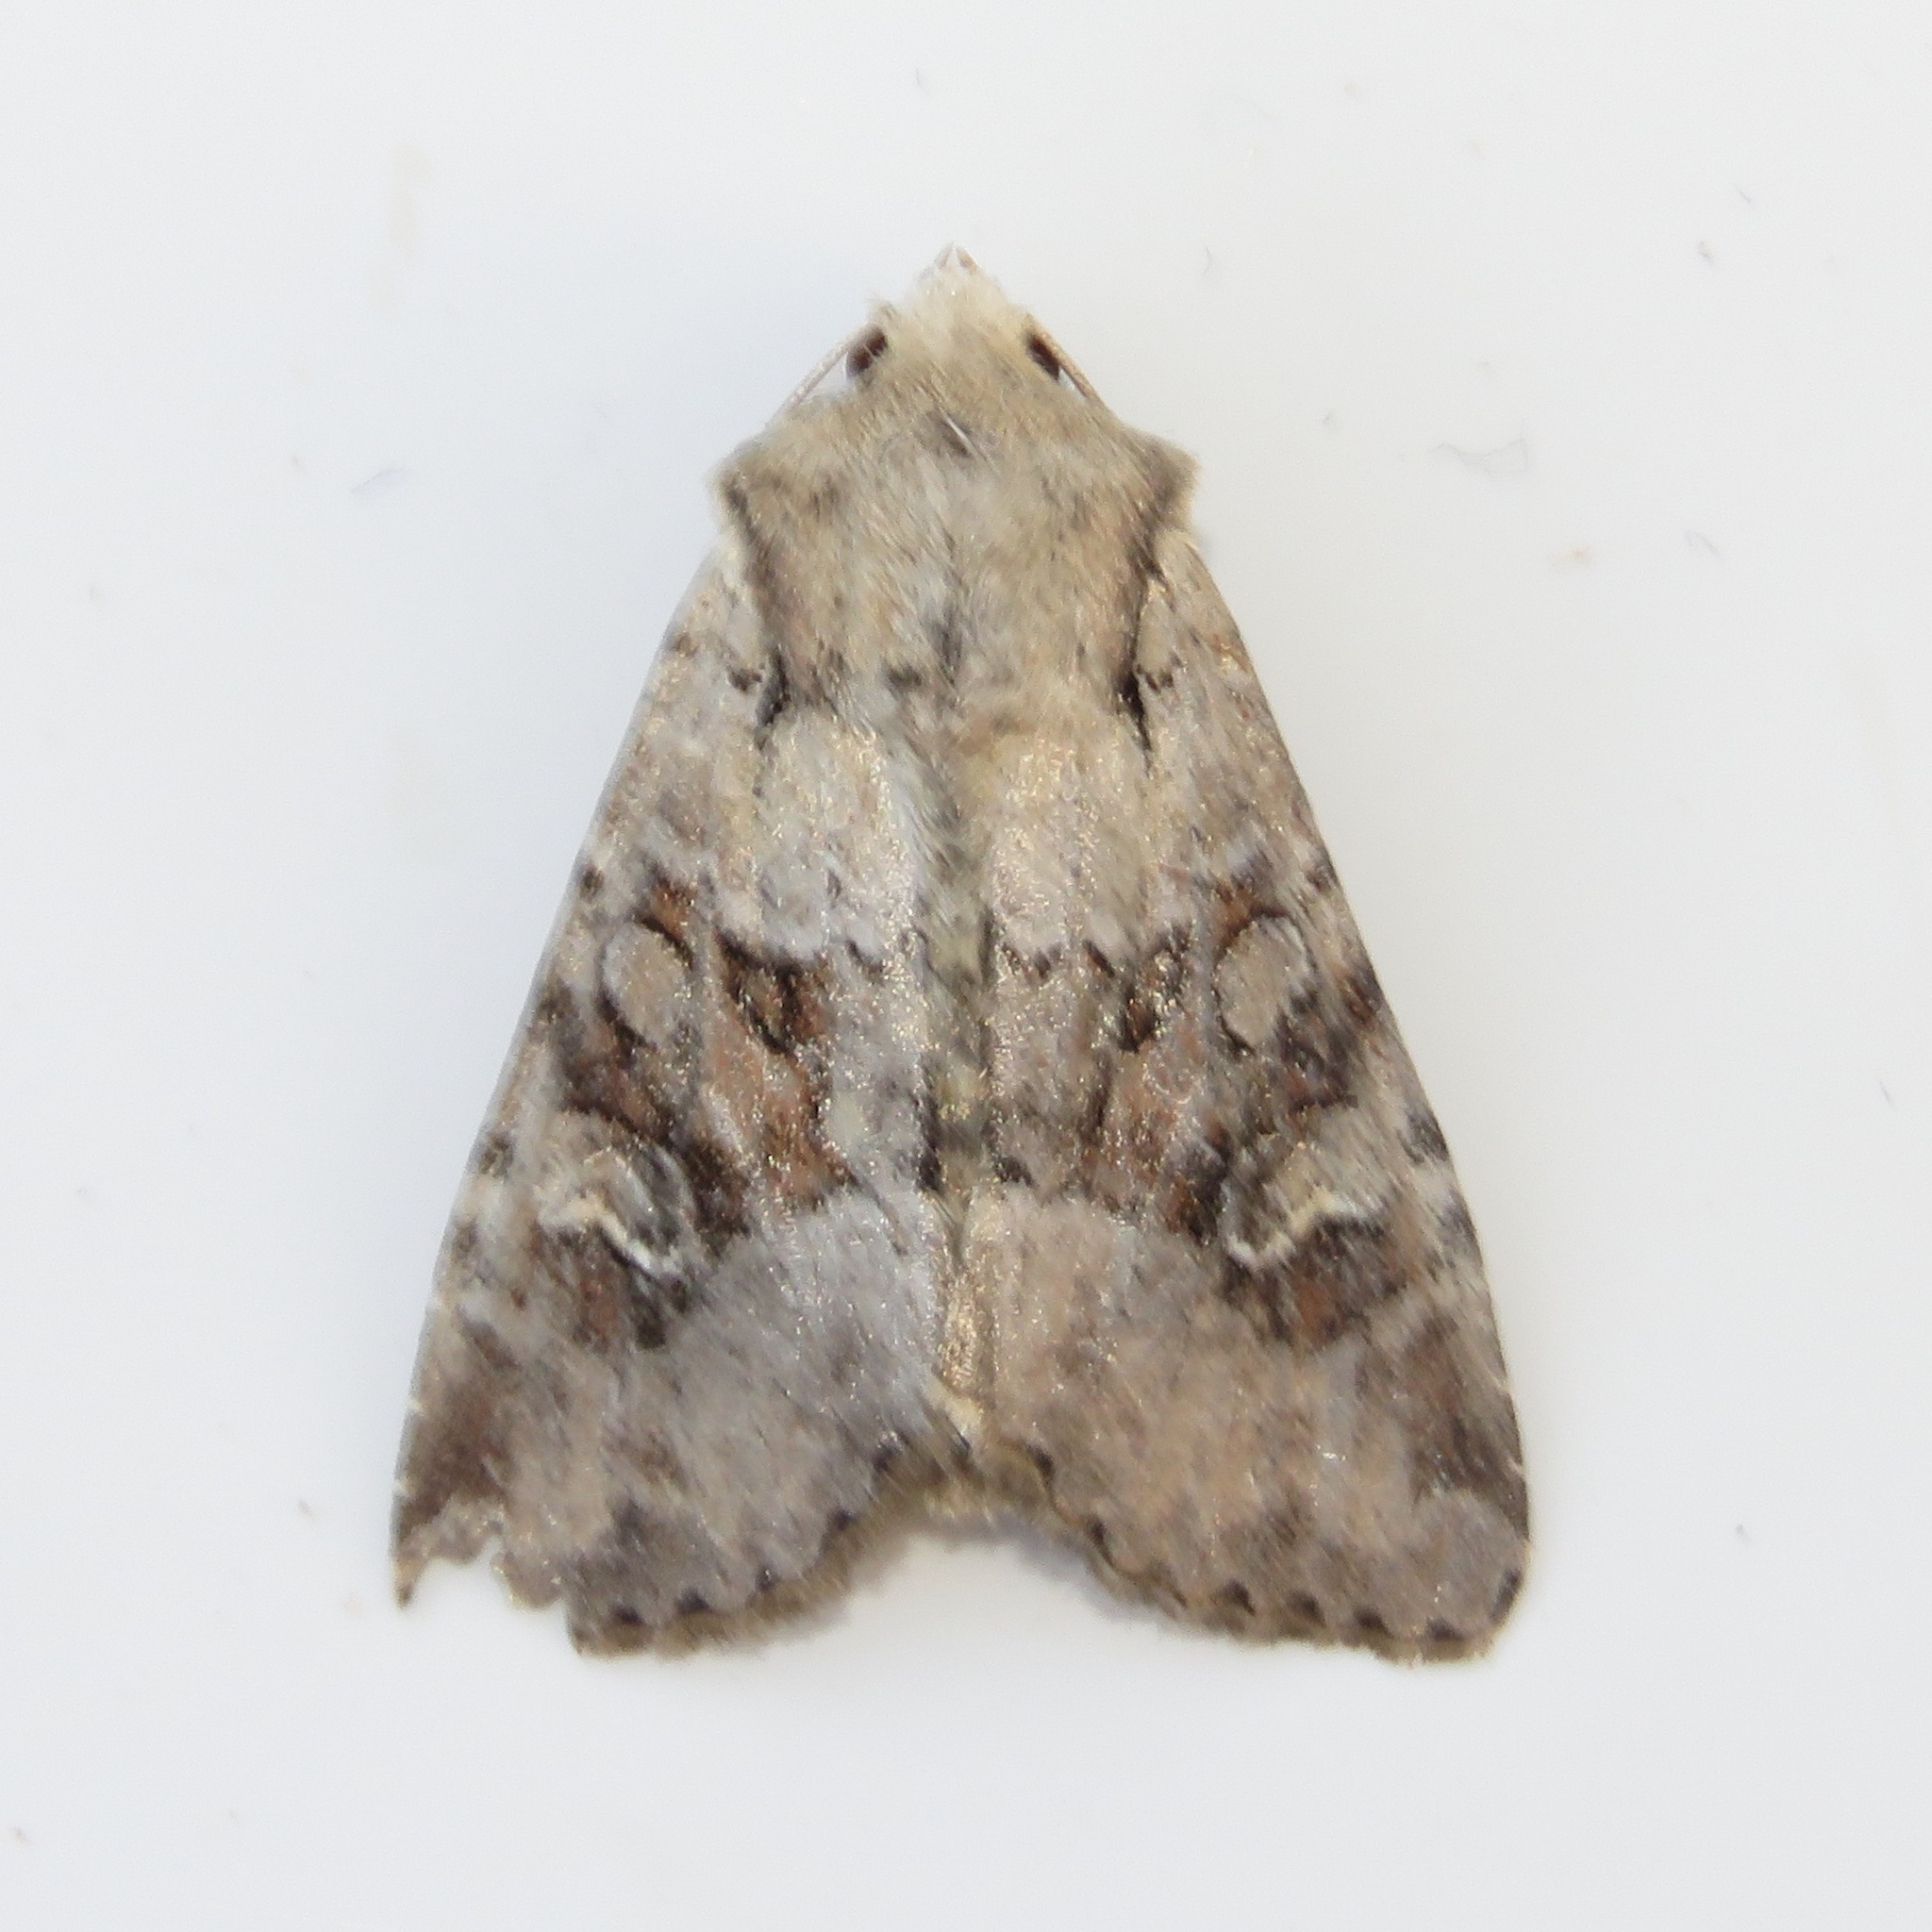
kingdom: Animalia
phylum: Arthropoda
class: Insecta
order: Lepidoptera
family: Noctuidae
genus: Apamea
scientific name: Apamea sordens
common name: Rustic shoulder-knot
